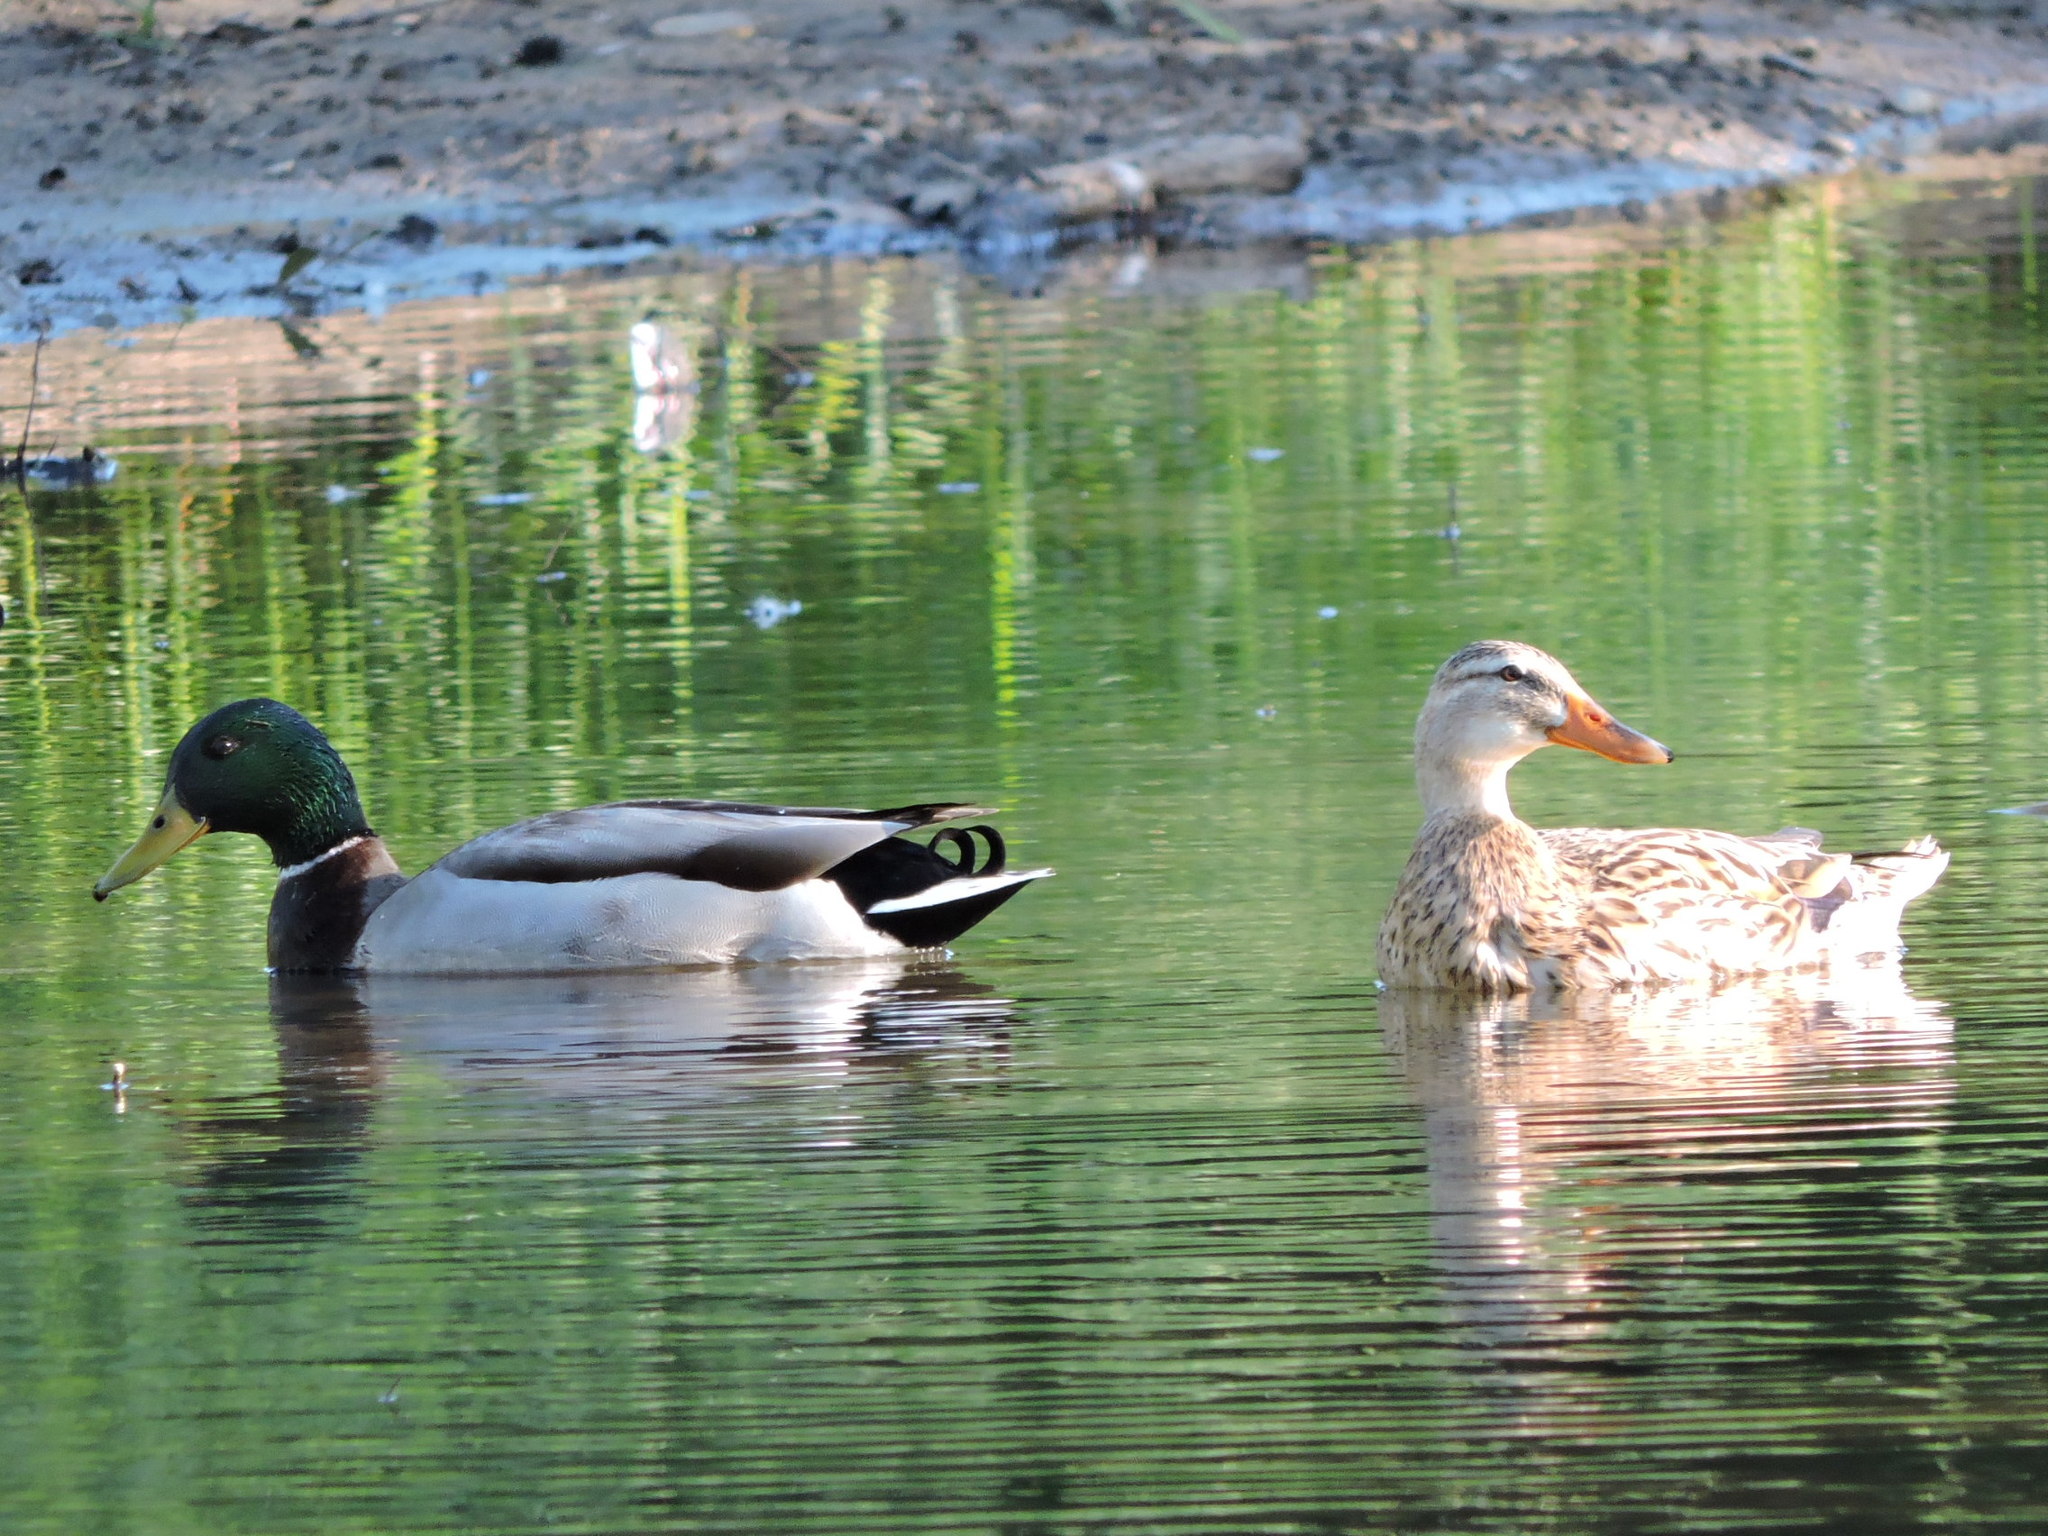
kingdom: Animalia
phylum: Chordata
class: Aves
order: Anseriformes
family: Anatidae
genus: Anas
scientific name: Anas platyrhynchos
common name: Mallard
